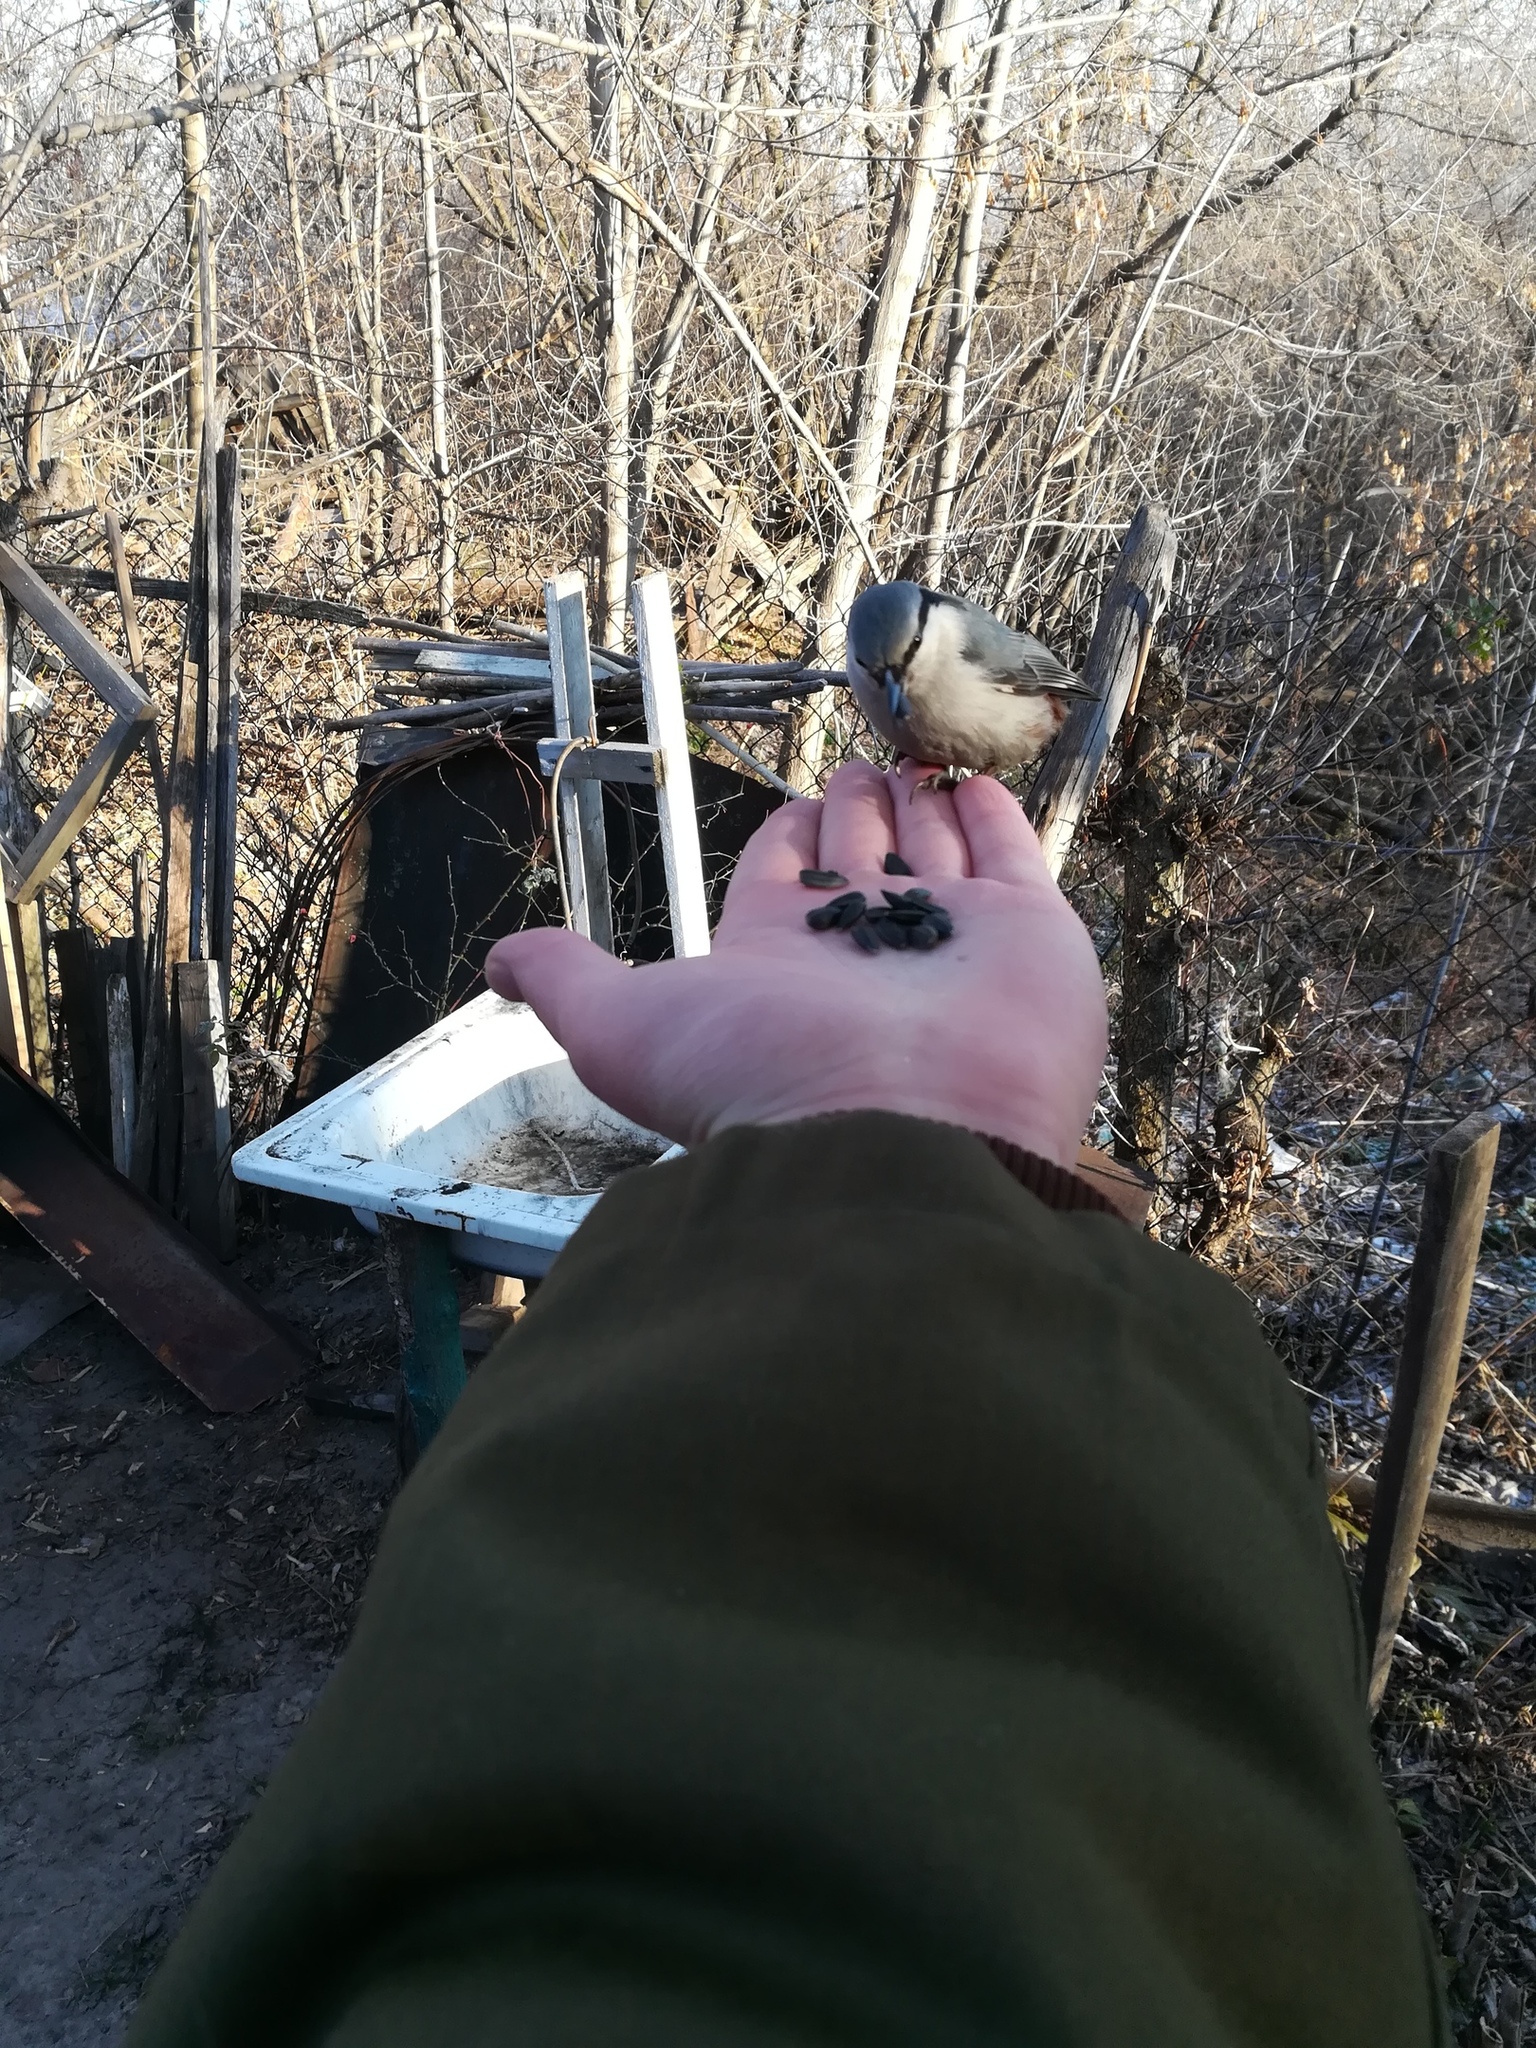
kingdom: Animalia
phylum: Chordata
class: Aves
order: Passeriformes
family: Sittidae
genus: Sitta
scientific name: Sitta europaea
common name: Eurasian nuthatch
